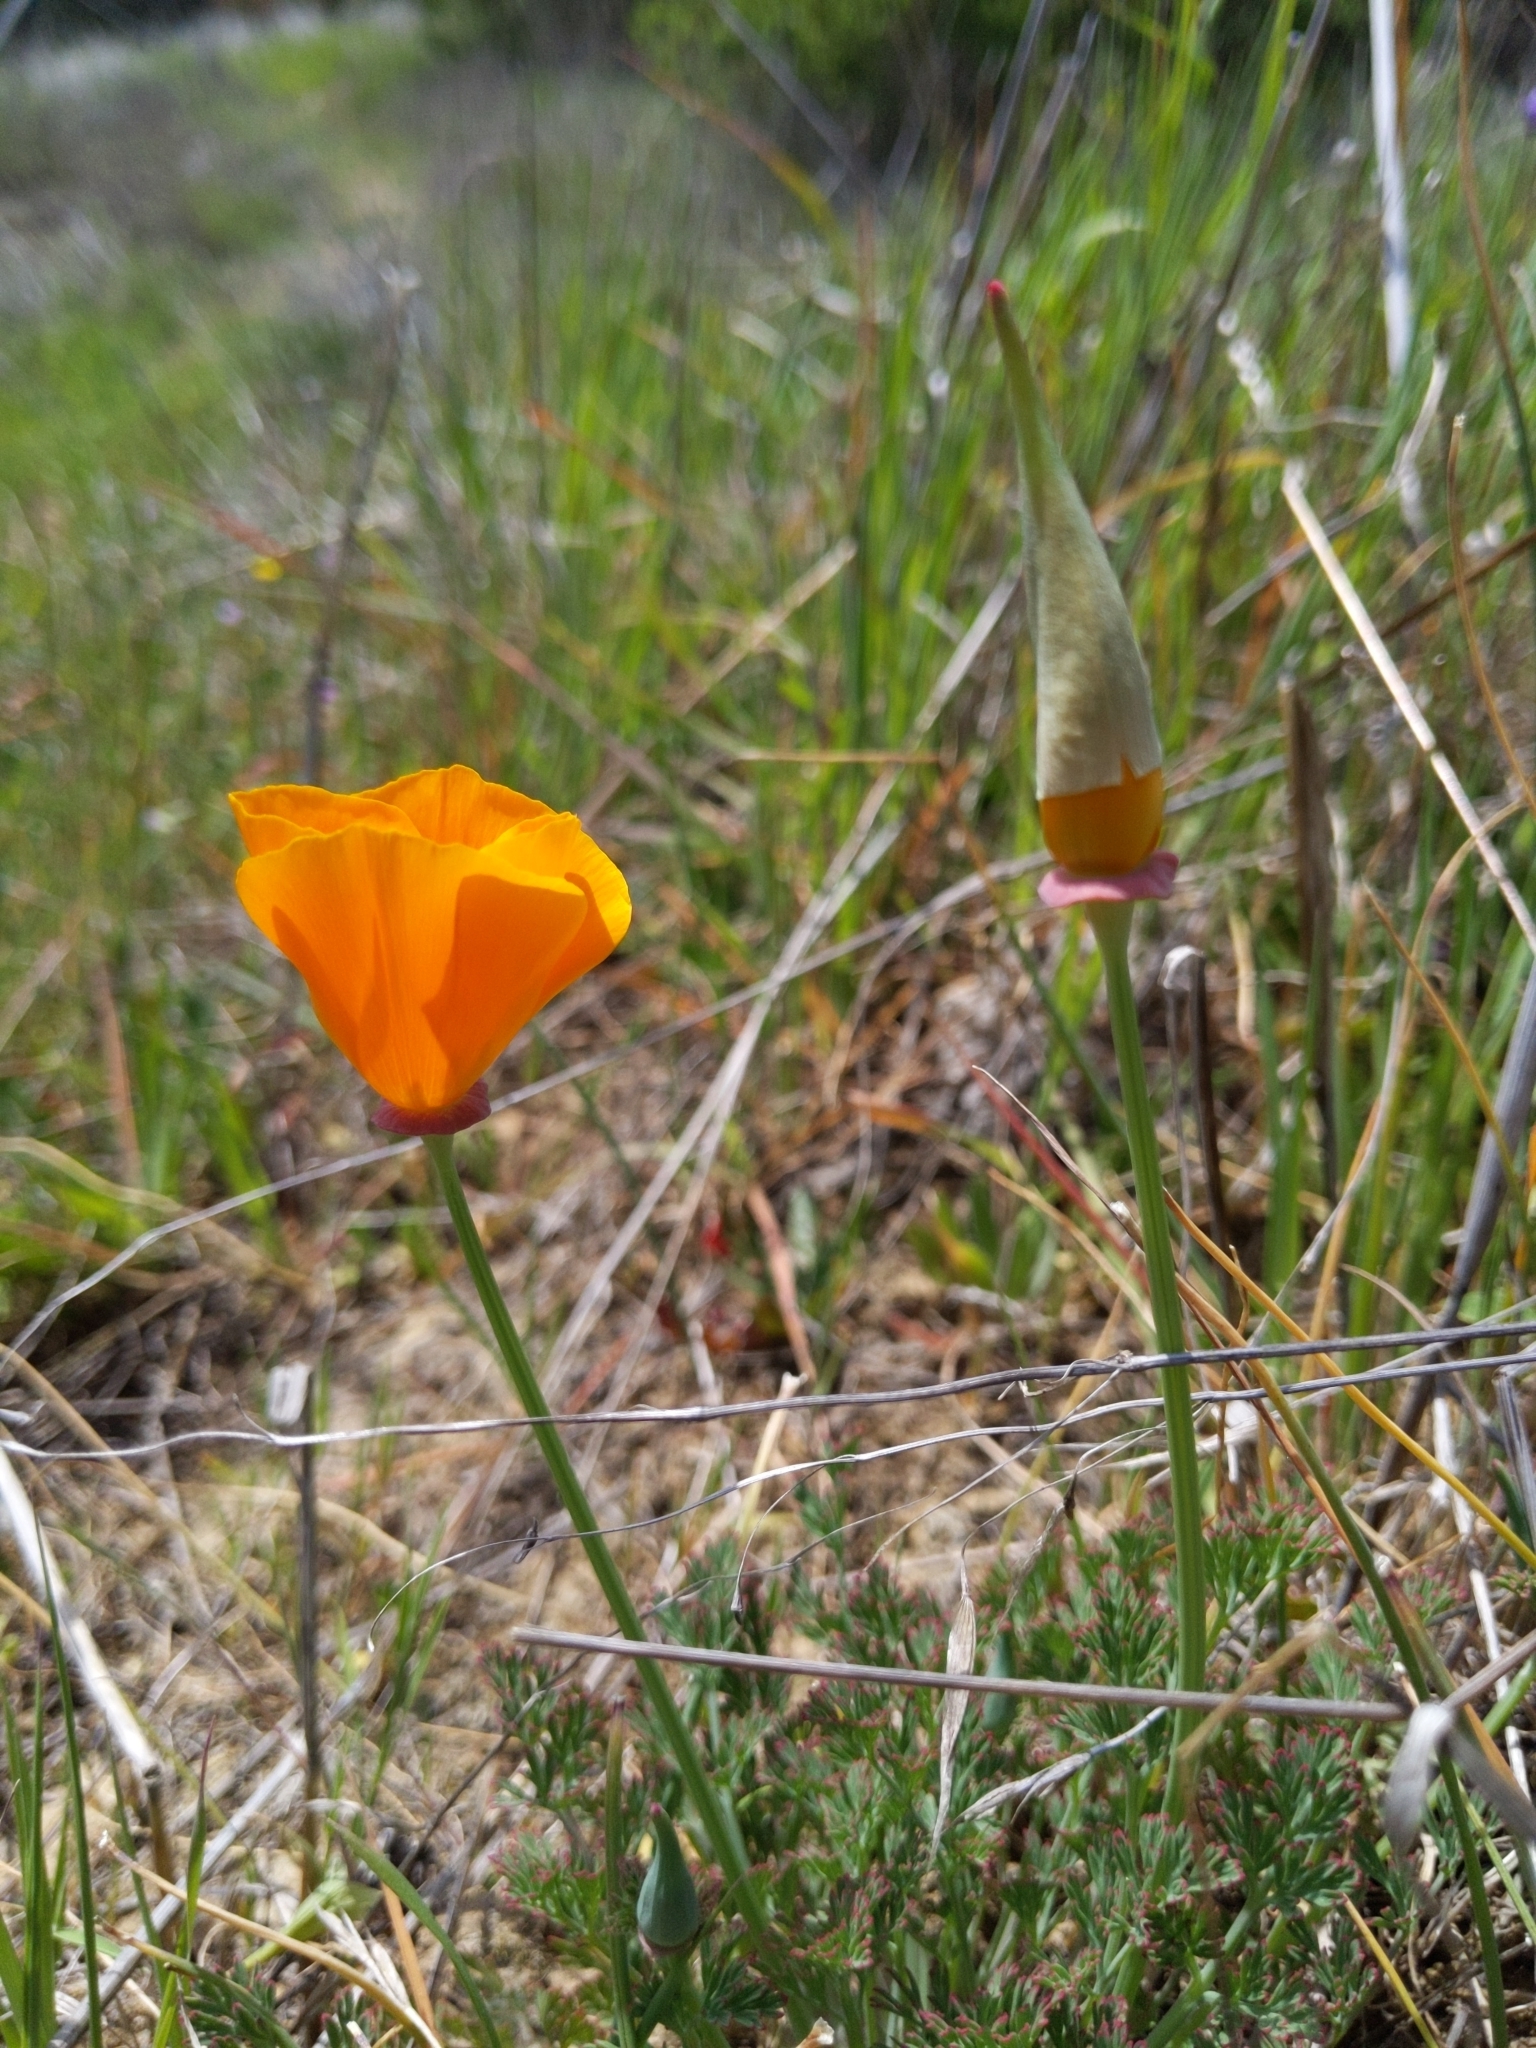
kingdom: Plantae
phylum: Tracheophyta
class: Magnoliopsida
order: Ranunculales
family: Papaveraceae
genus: Eschscholzia
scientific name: Eschscholzia californica
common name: California poppy
